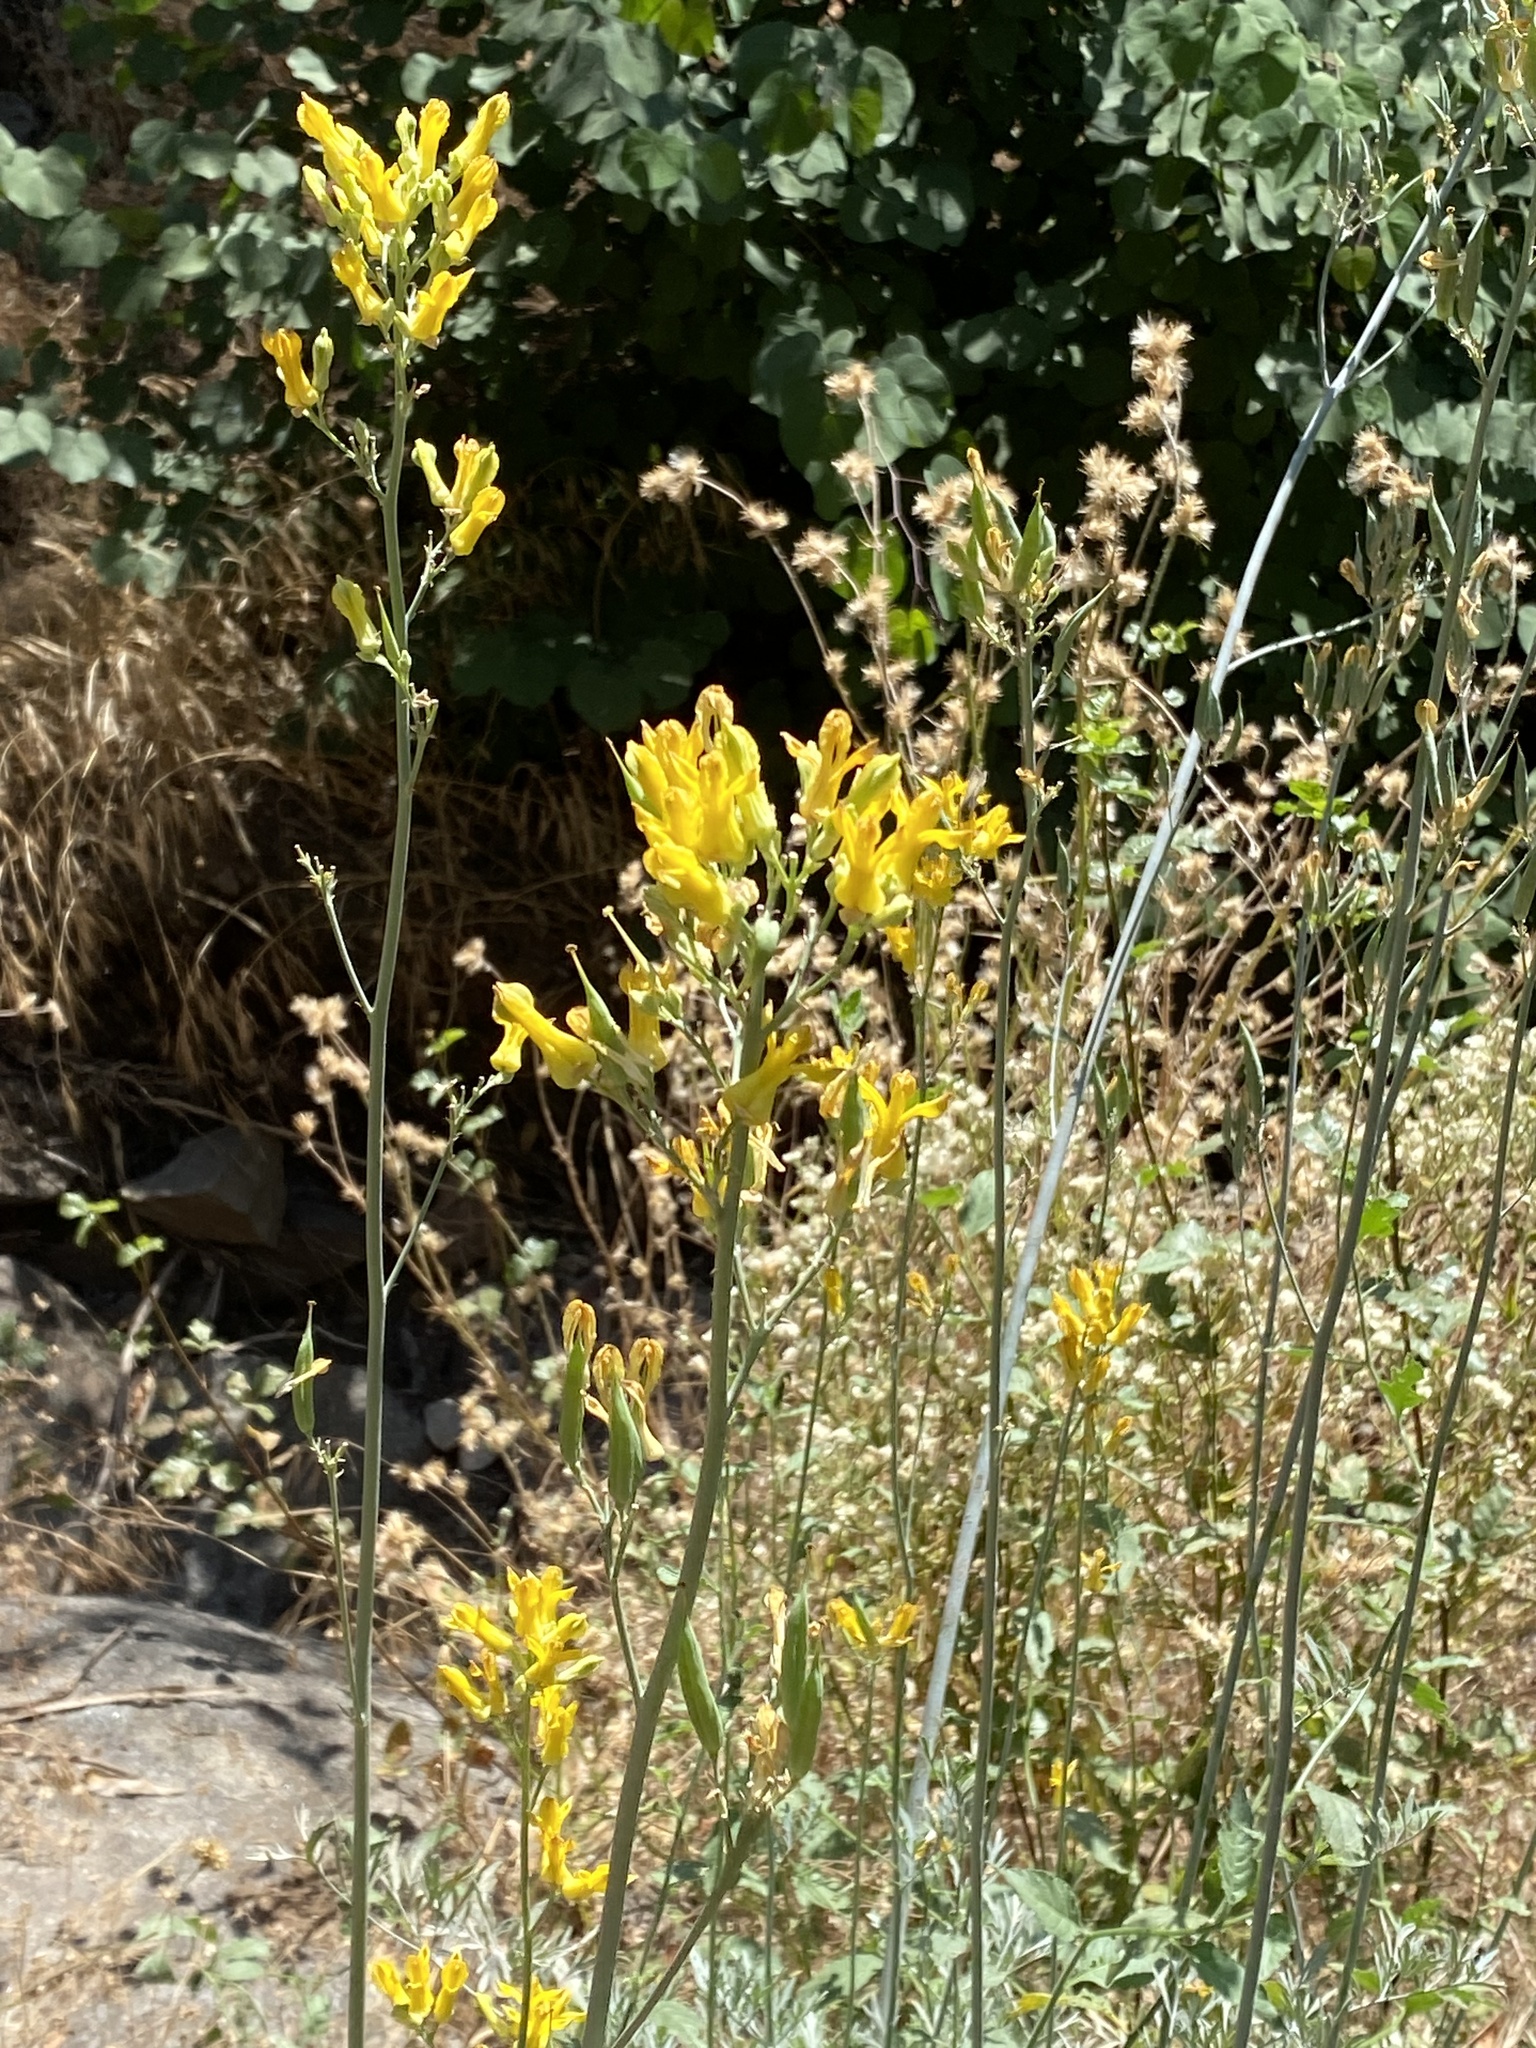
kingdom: Plantae
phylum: Tracheophyta
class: Magnoliopsida
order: Ranunculales
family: Papaveraceae
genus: Ehrendorferia
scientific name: Ehrendorferia chrysantha
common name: Golden eardrops
